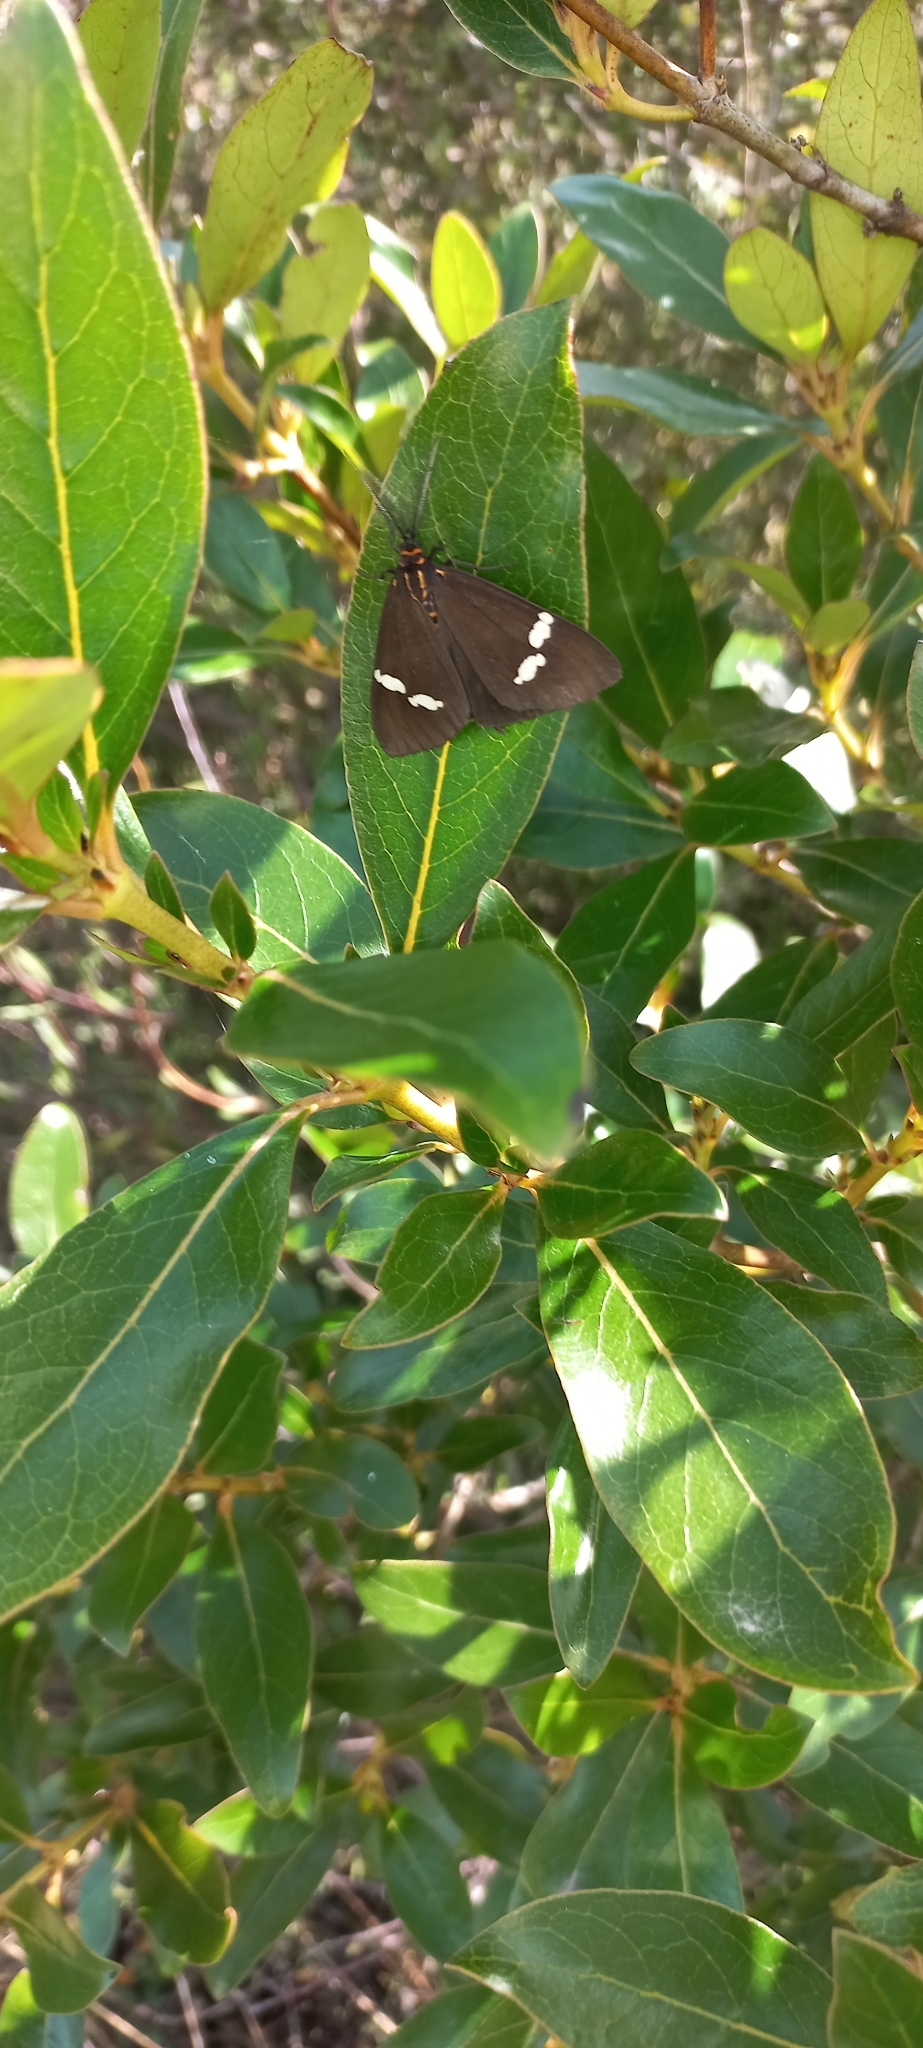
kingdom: Animalia
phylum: Arthropoda
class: Insecta
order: Lepidoptera
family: Erebidae
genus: Nyctemera
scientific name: Nyctemera annulatum
